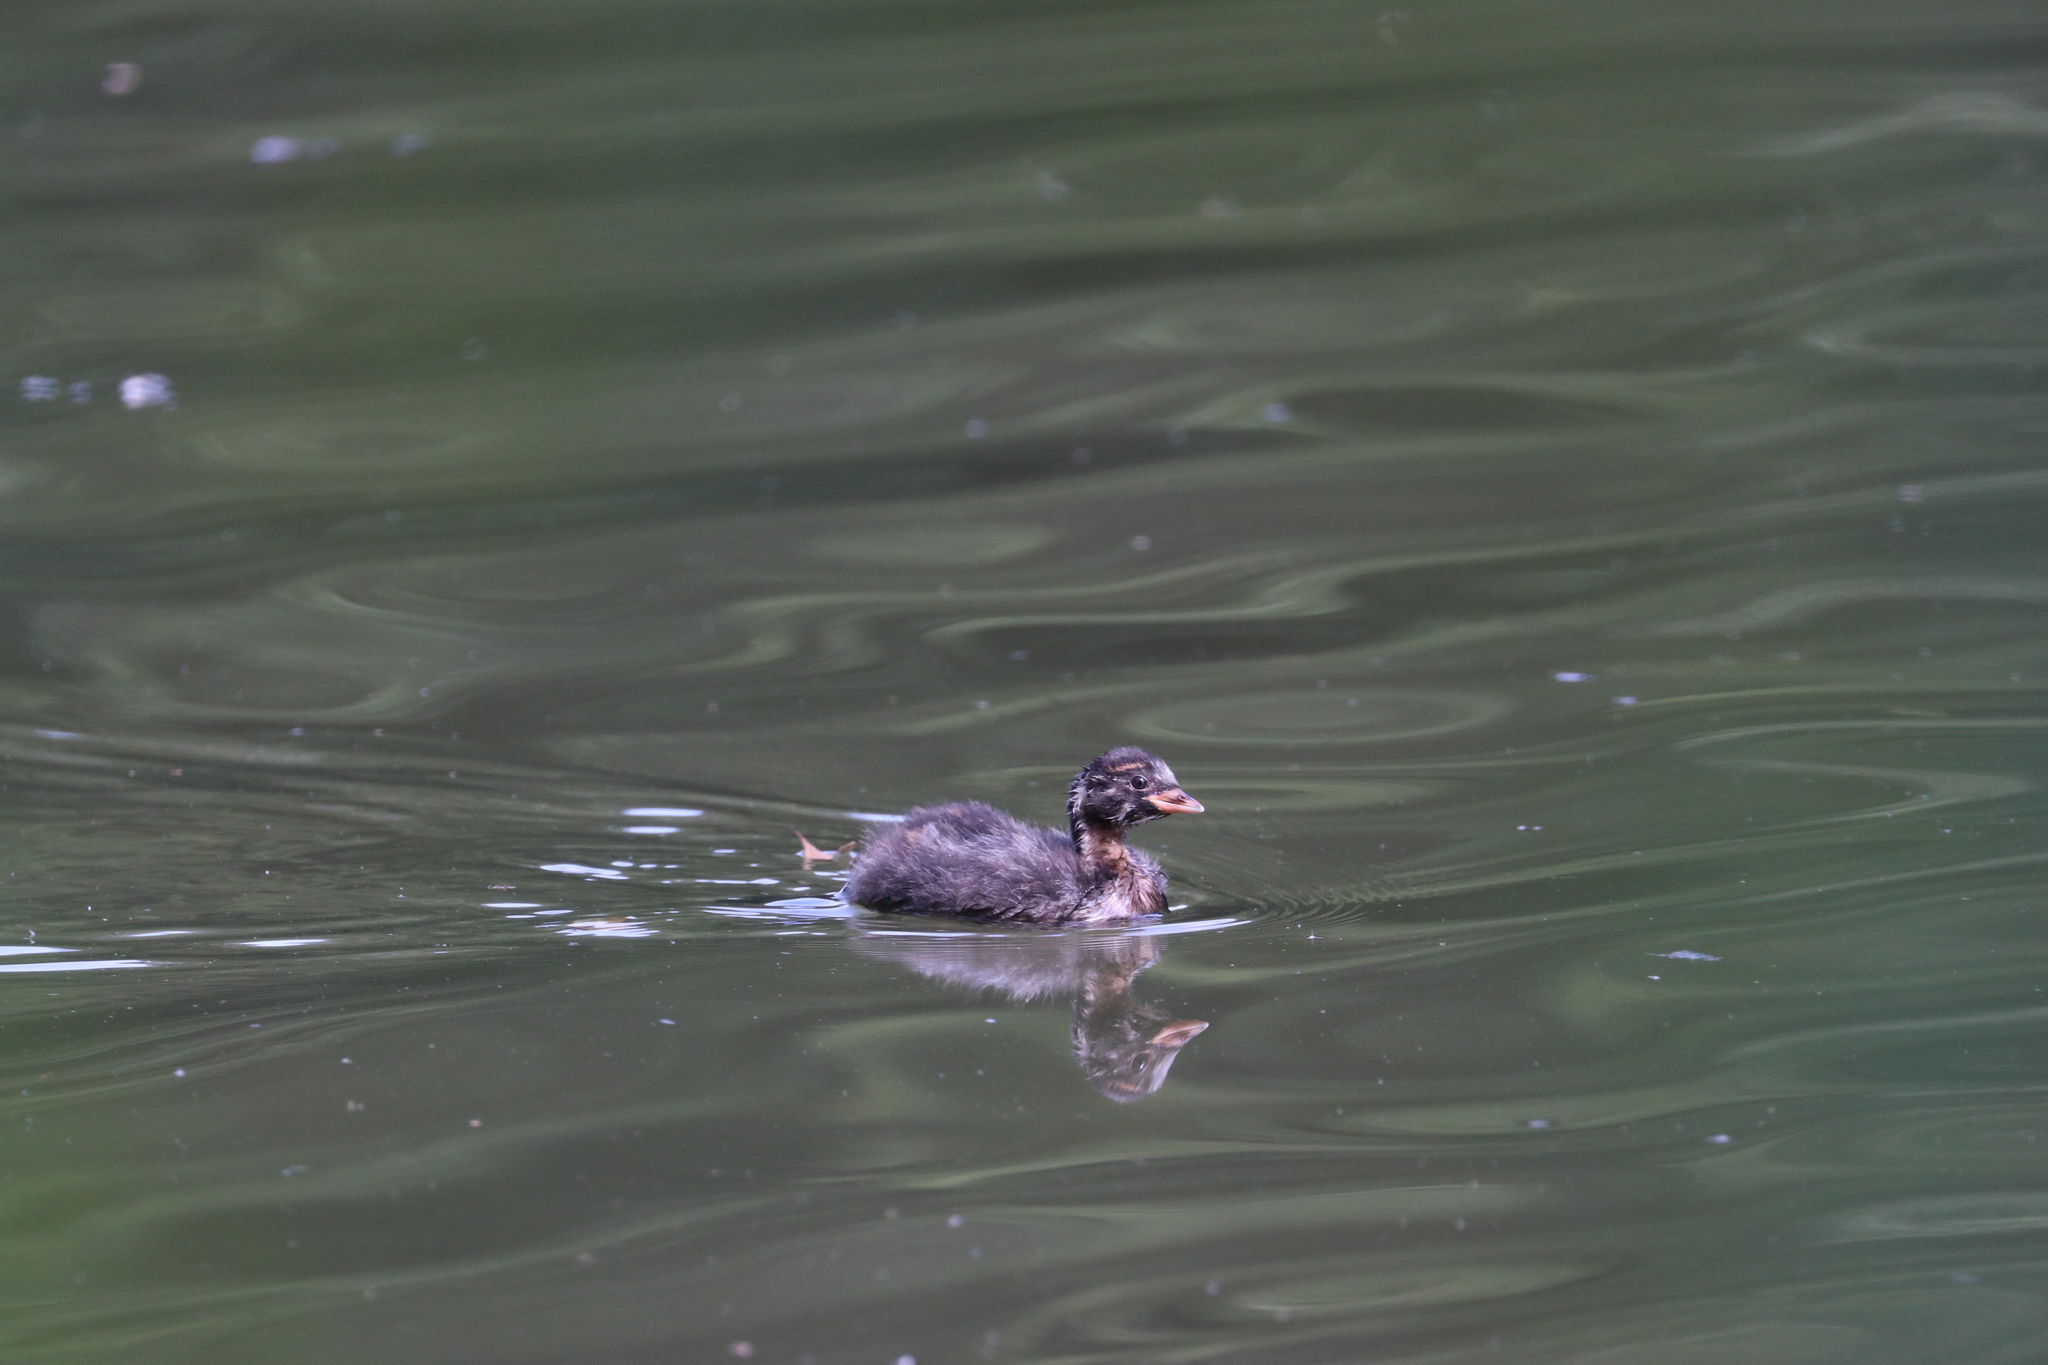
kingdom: Animalia
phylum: Chordata
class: Aves
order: Podicipediformes
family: Podicipedidae
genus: Tachybaptus
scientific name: Tachybaptus ruficollis
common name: Little grebe
